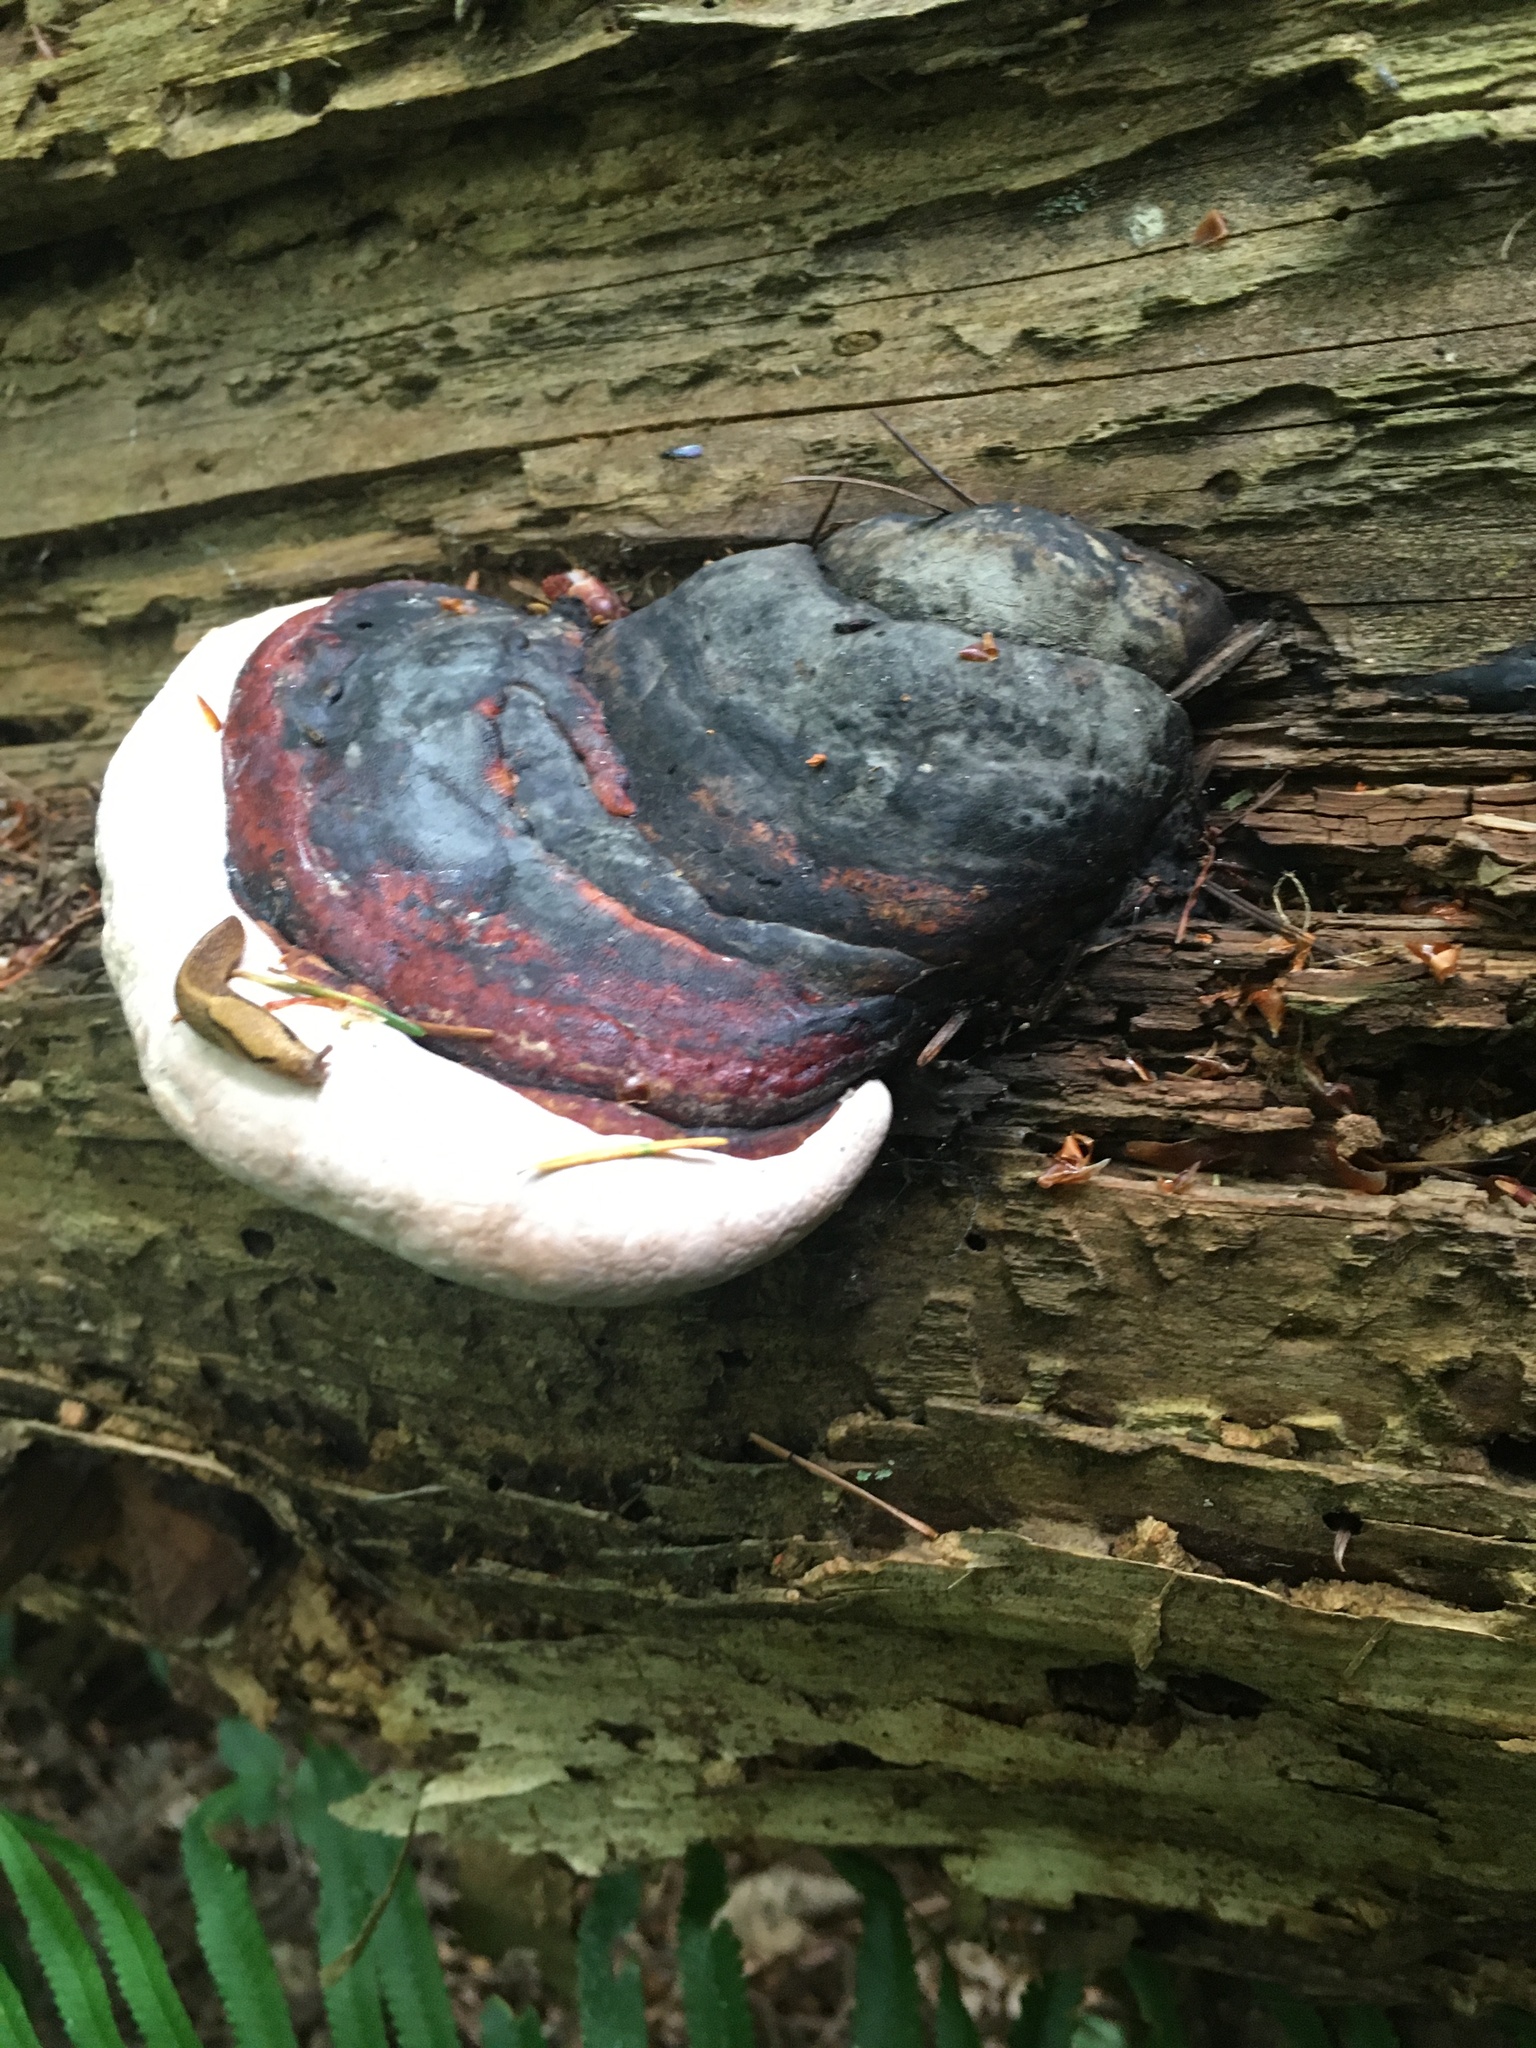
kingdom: Fungi
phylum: Basidiomycota
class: Agaricomycetes
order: Polyporales
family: Fomitopsidaceae
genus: Fomitopsis
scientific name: Fomitopsis mounceae
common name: Northern red belt
